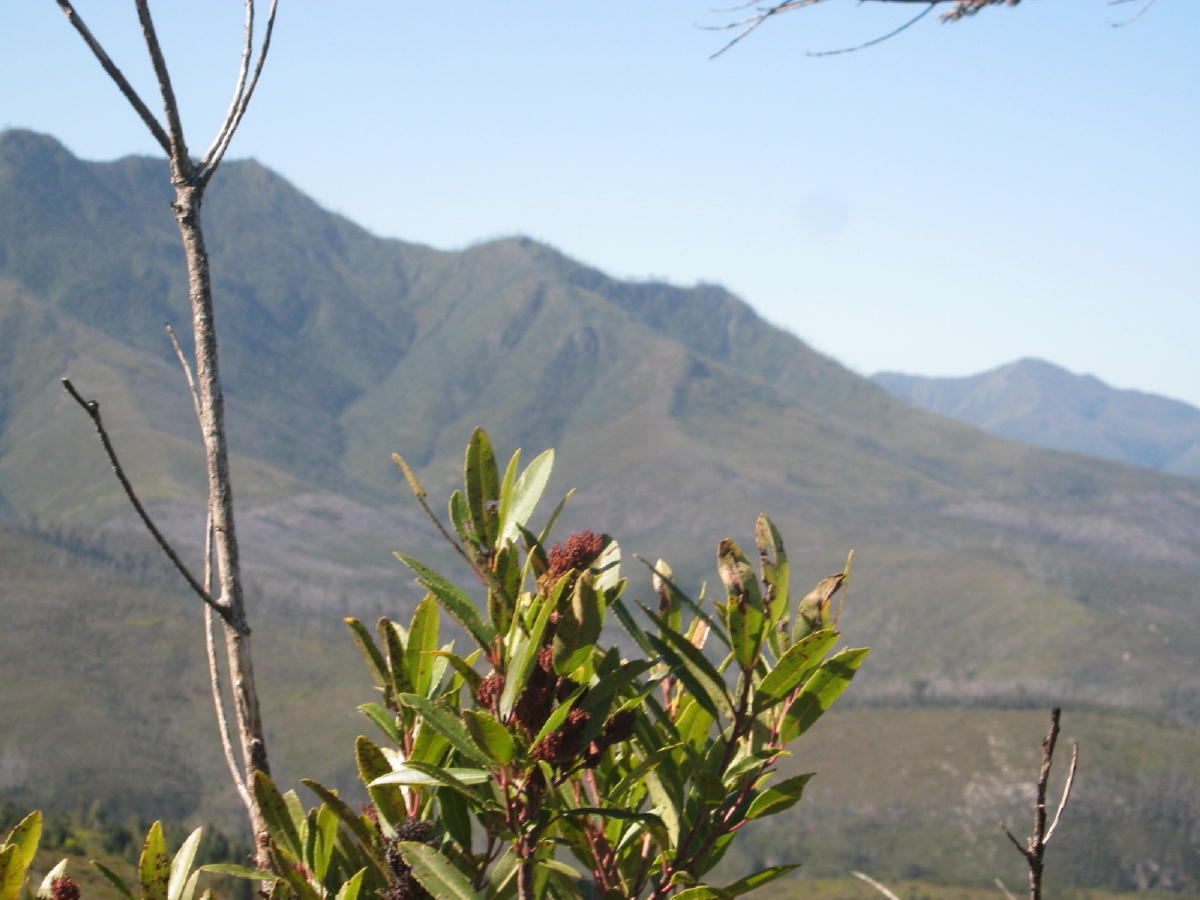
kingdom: Plantae
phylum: Tracheophyta
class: Magnoliopsida
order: Sapindales
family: Anacardiaceae
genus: Laurophyllus
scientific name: Laurophyllus capensis
